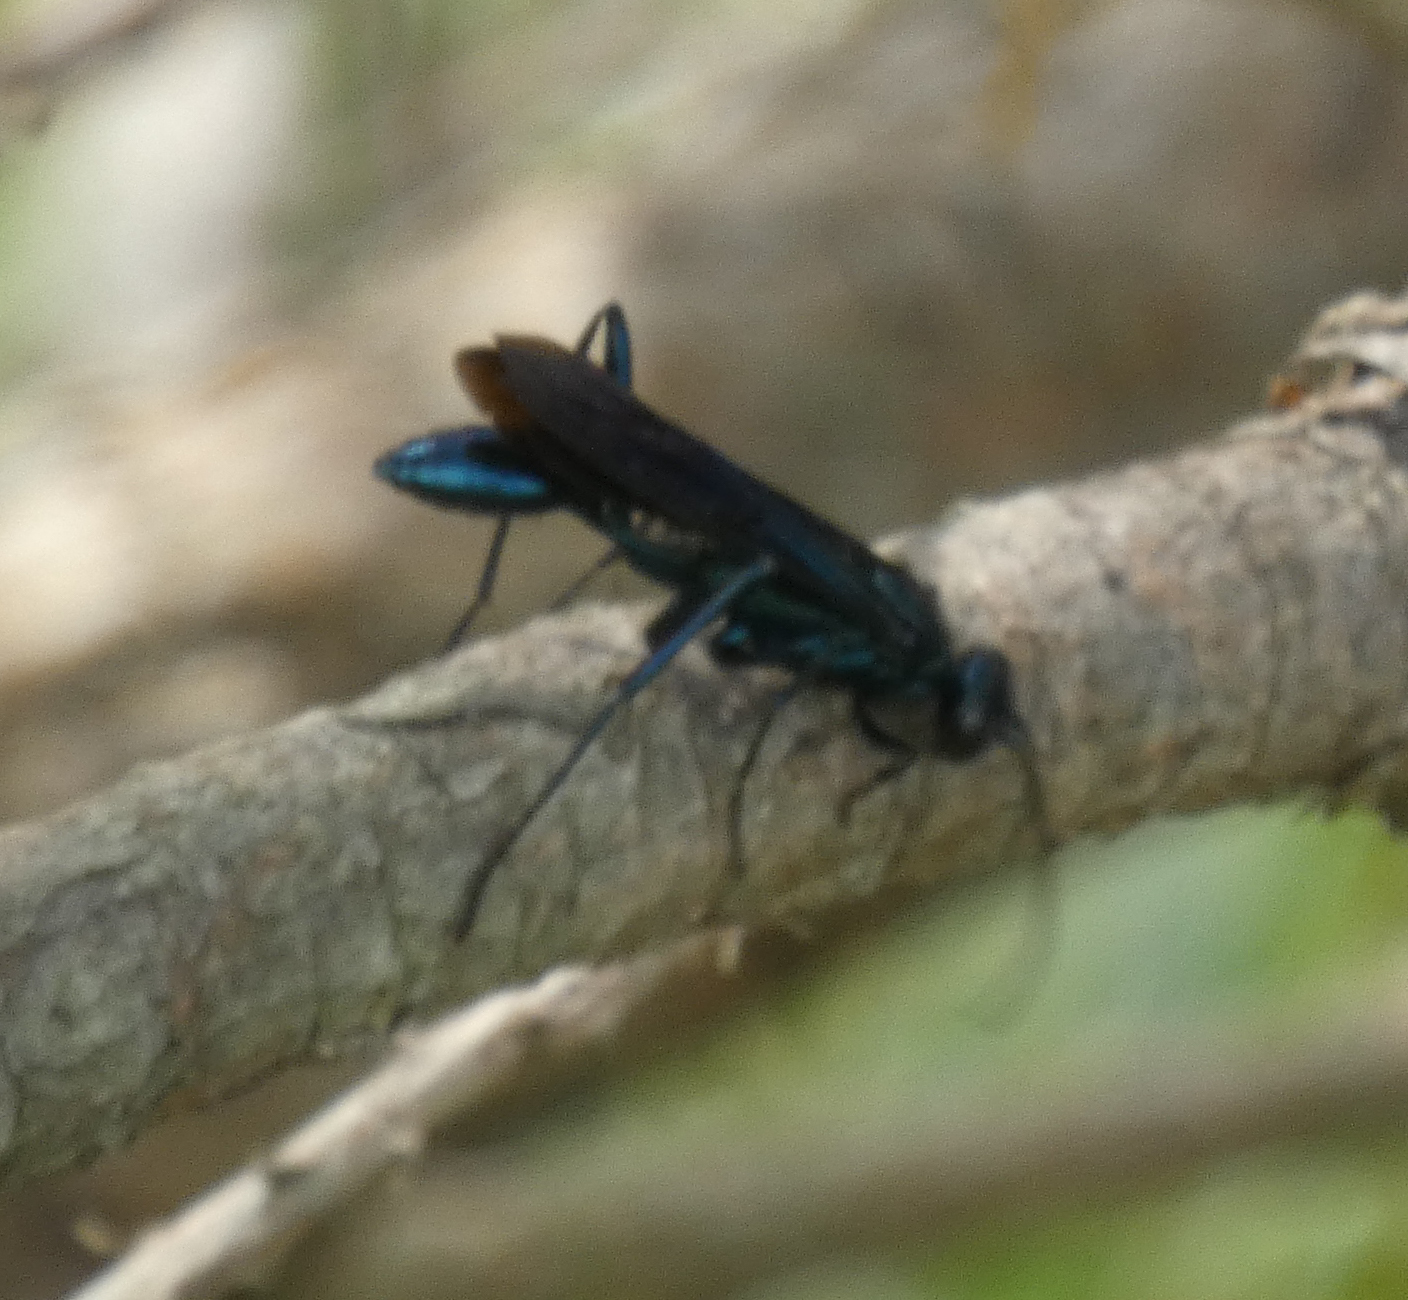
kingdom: Animalia
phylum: Arthropoda
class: Insecta
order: Hymenoptera
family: Sphecidae
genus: Chalybion
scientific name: Chalybion californicum
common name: Mud dauber
